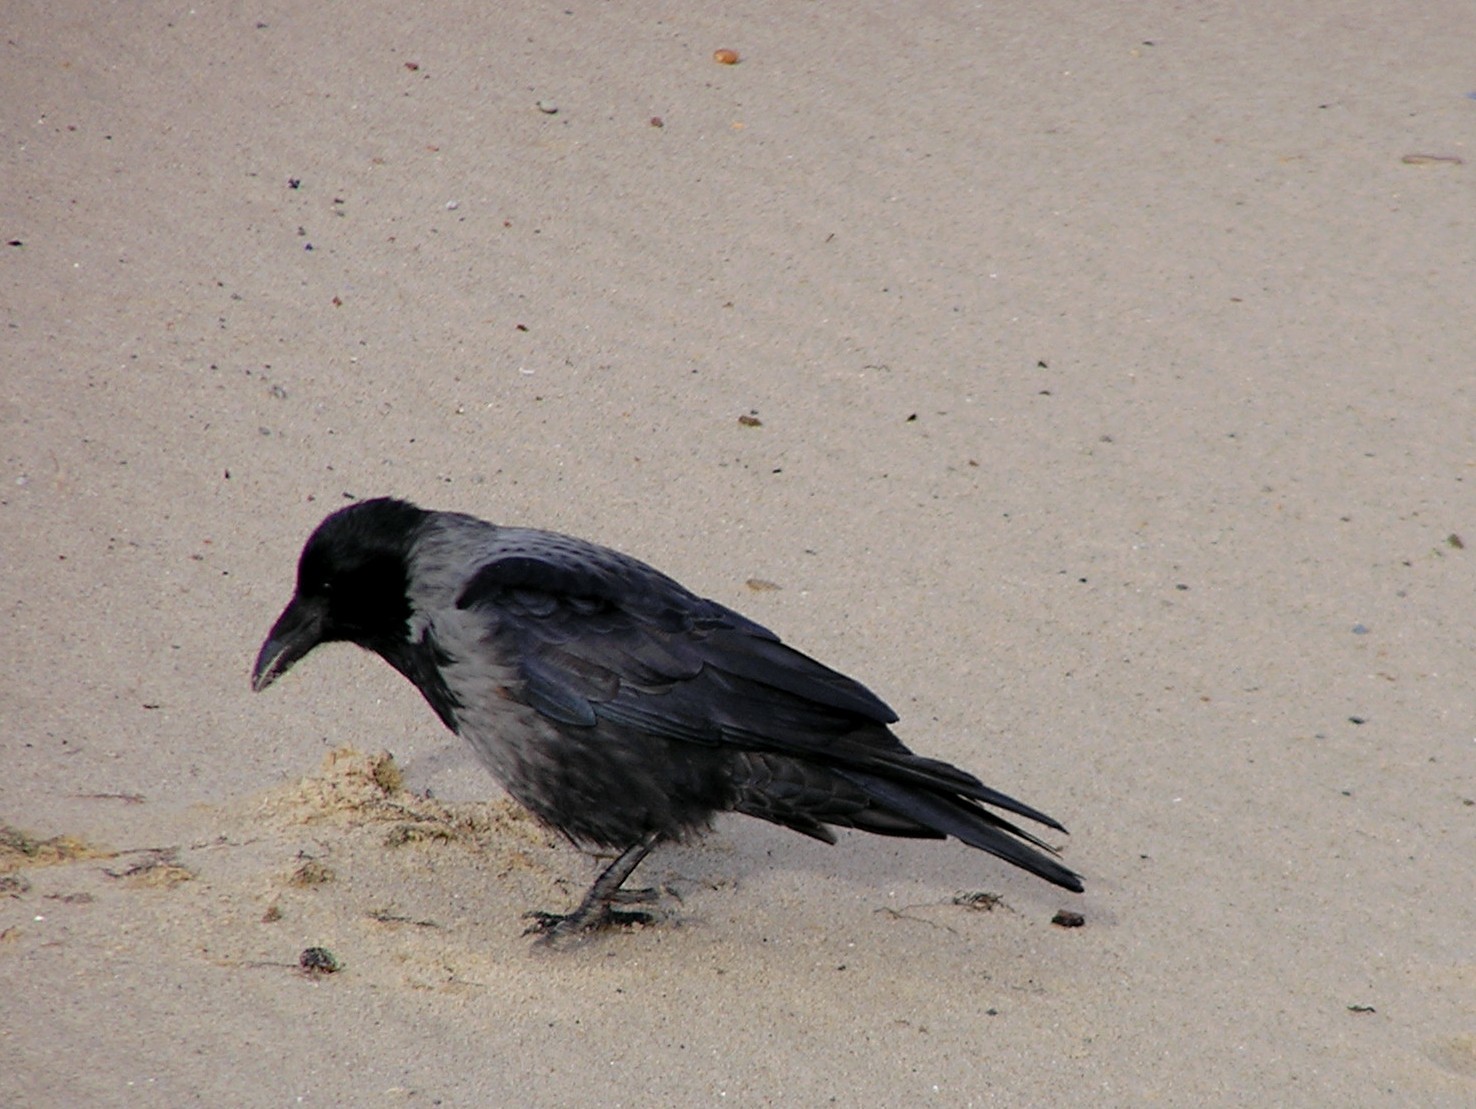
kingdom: Animalia
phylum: Chordata
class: Aves
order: Passeriformes
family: Corvidae
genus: Corvus
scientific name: Corvus
